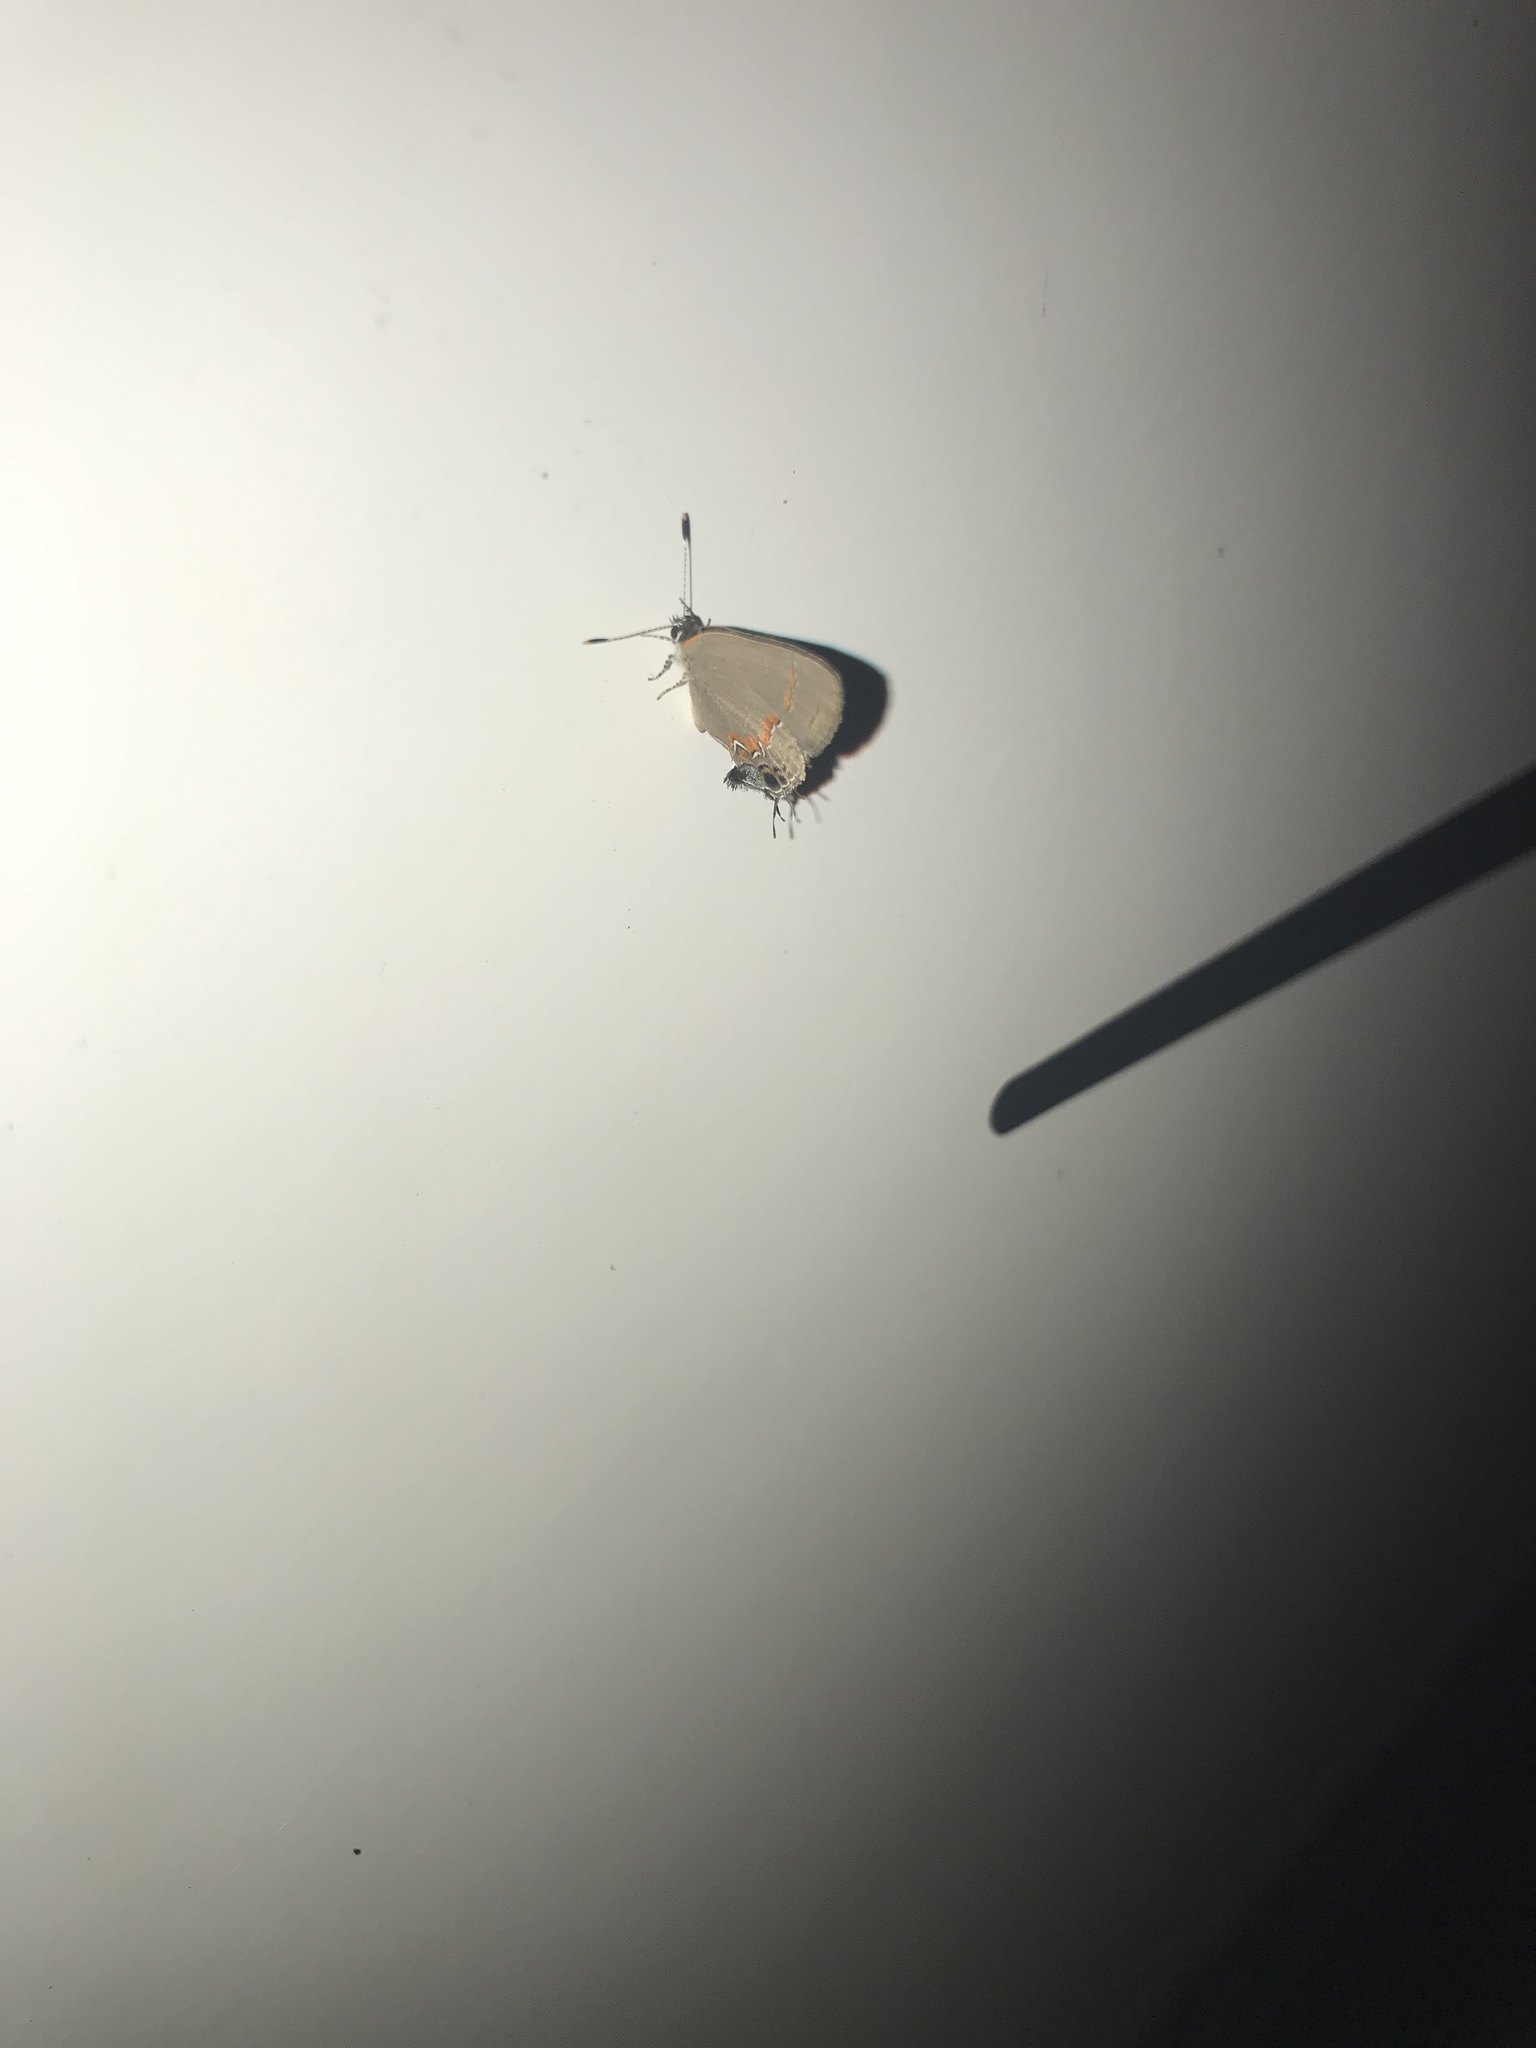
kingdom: Animalia
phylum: Arthropoda
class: Insecta
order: Lepidoptera
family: Lycaenidae
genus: Calycopis
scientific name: Calycopis cecrops
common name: Red-banded hairstreak
